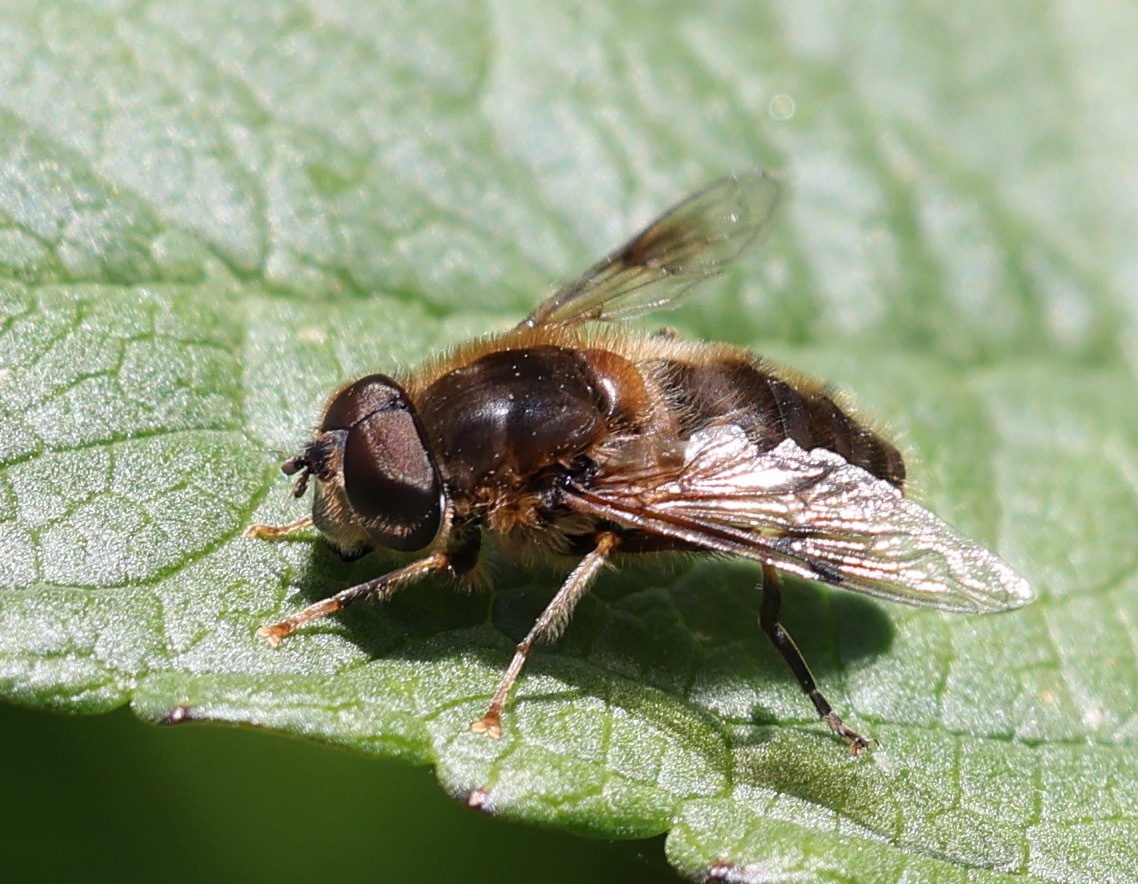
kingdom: Animalia
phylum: Arthropoda
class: Insecta
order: Diptera
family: Syrphidae
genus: Eristalis
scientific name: Eristalis pertinax
